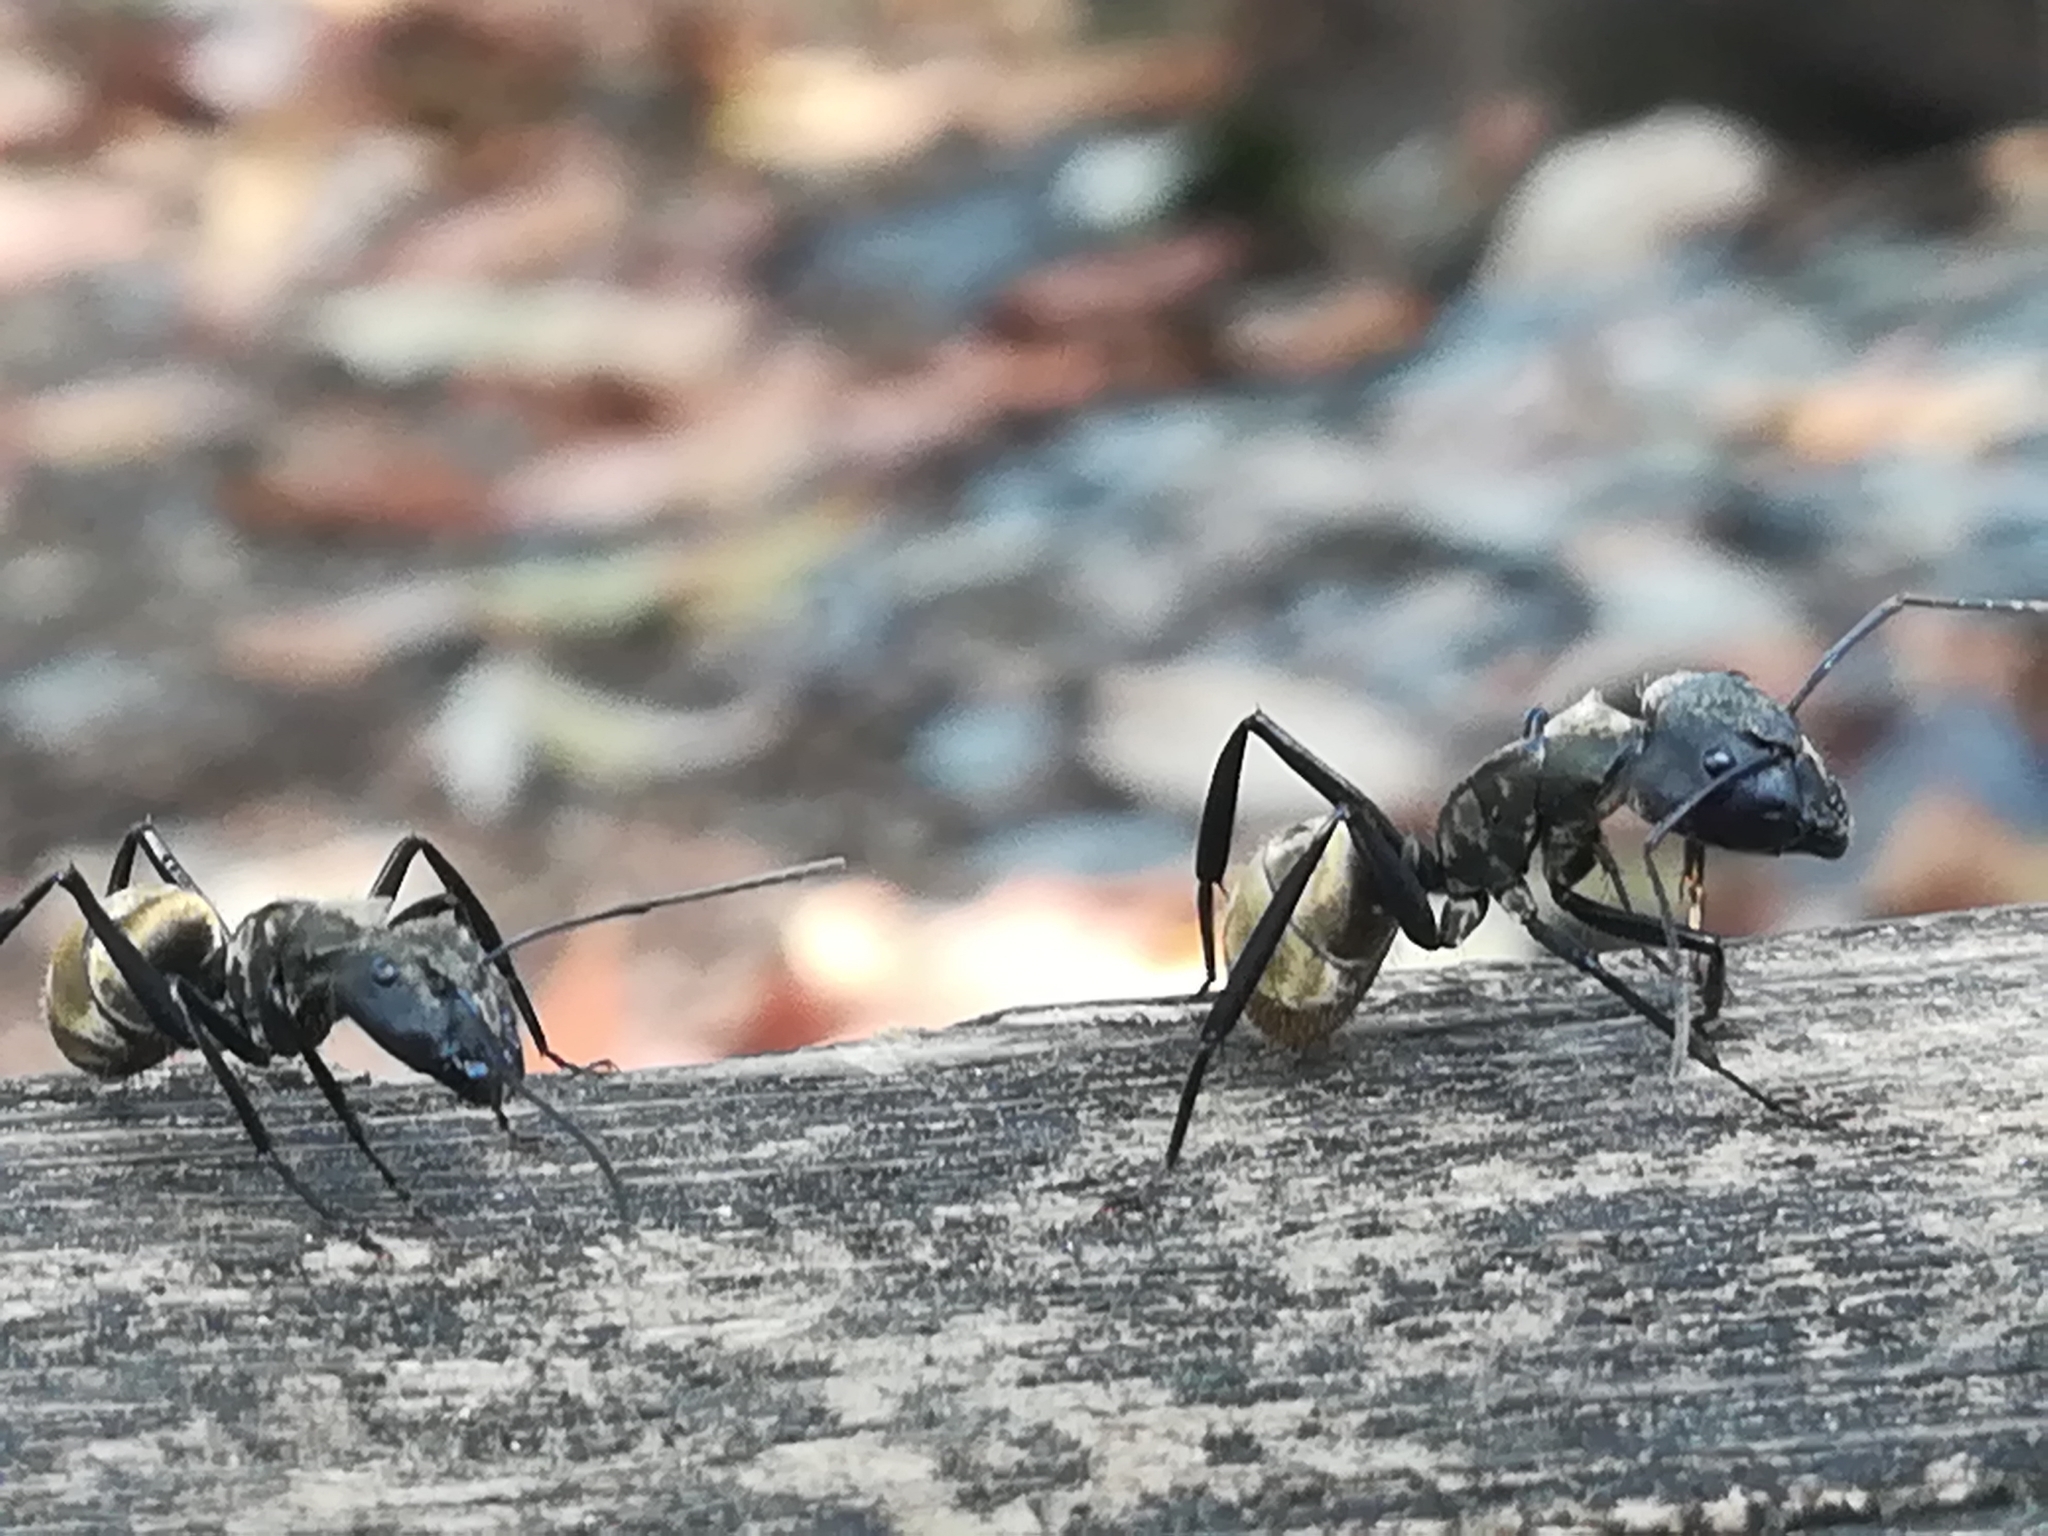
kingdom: Animalia
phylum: Arthropoda
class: Insecta
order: Hymenoptera
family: Formicidae
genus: Camponotus
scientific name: Camponotus sericeiventris
